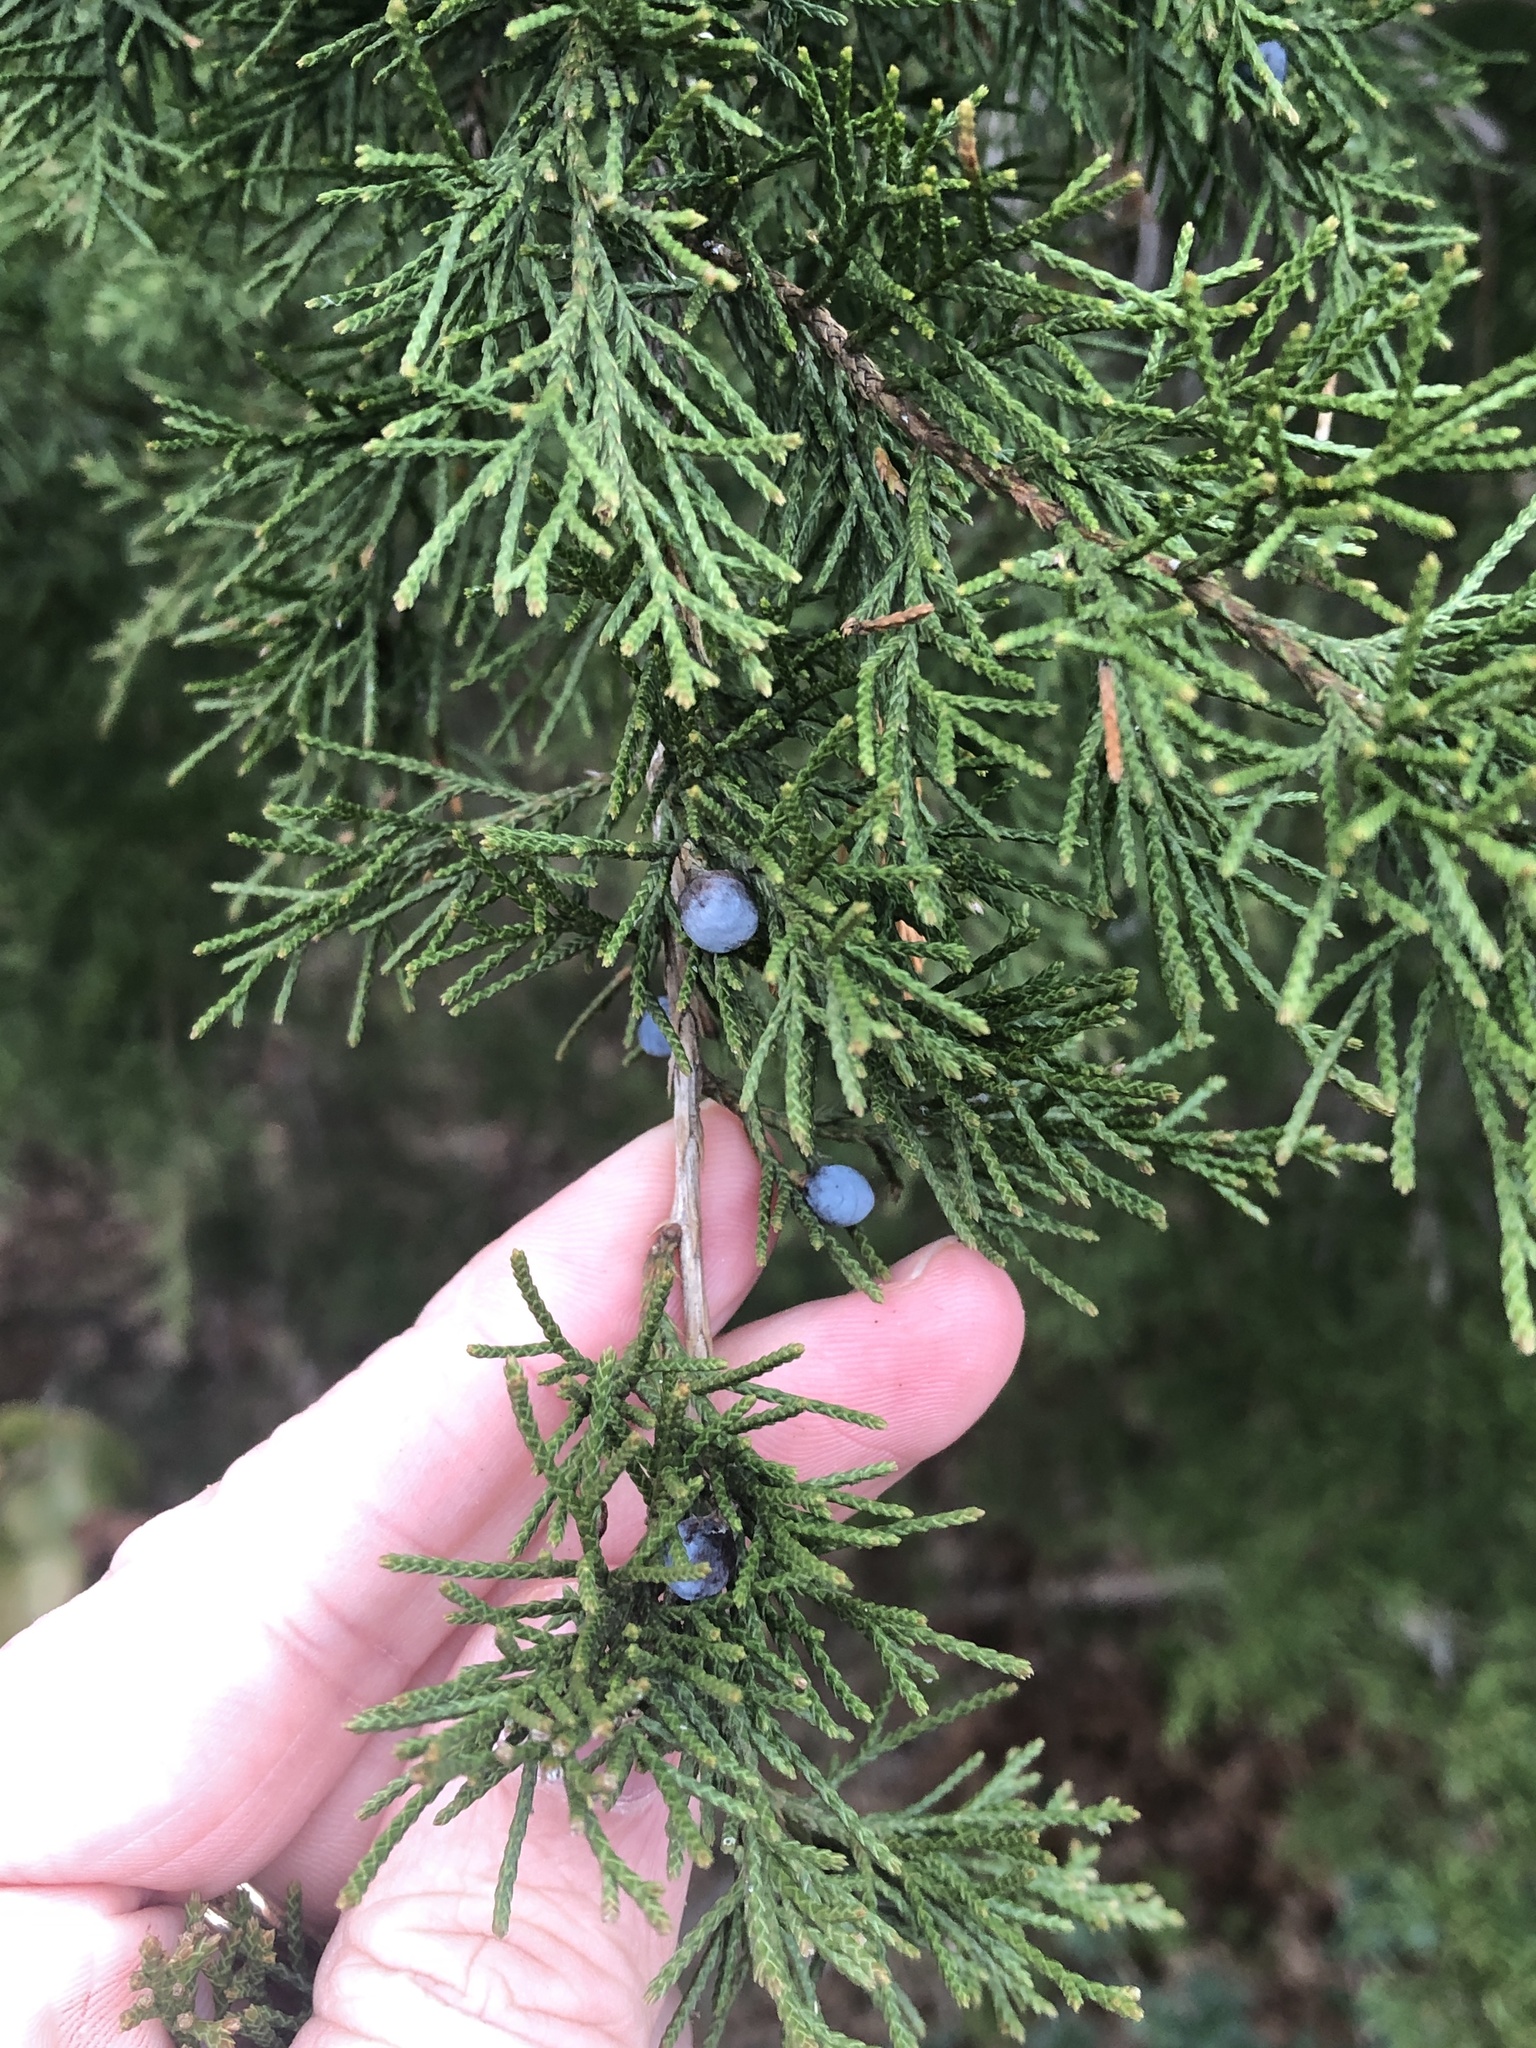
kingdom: Plantae
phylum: Tracheophyta
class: Pinopsida
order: Pinales
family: Cupressaceae
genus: Juniperus
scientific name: Juniperus virginiana
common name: Red juniper
